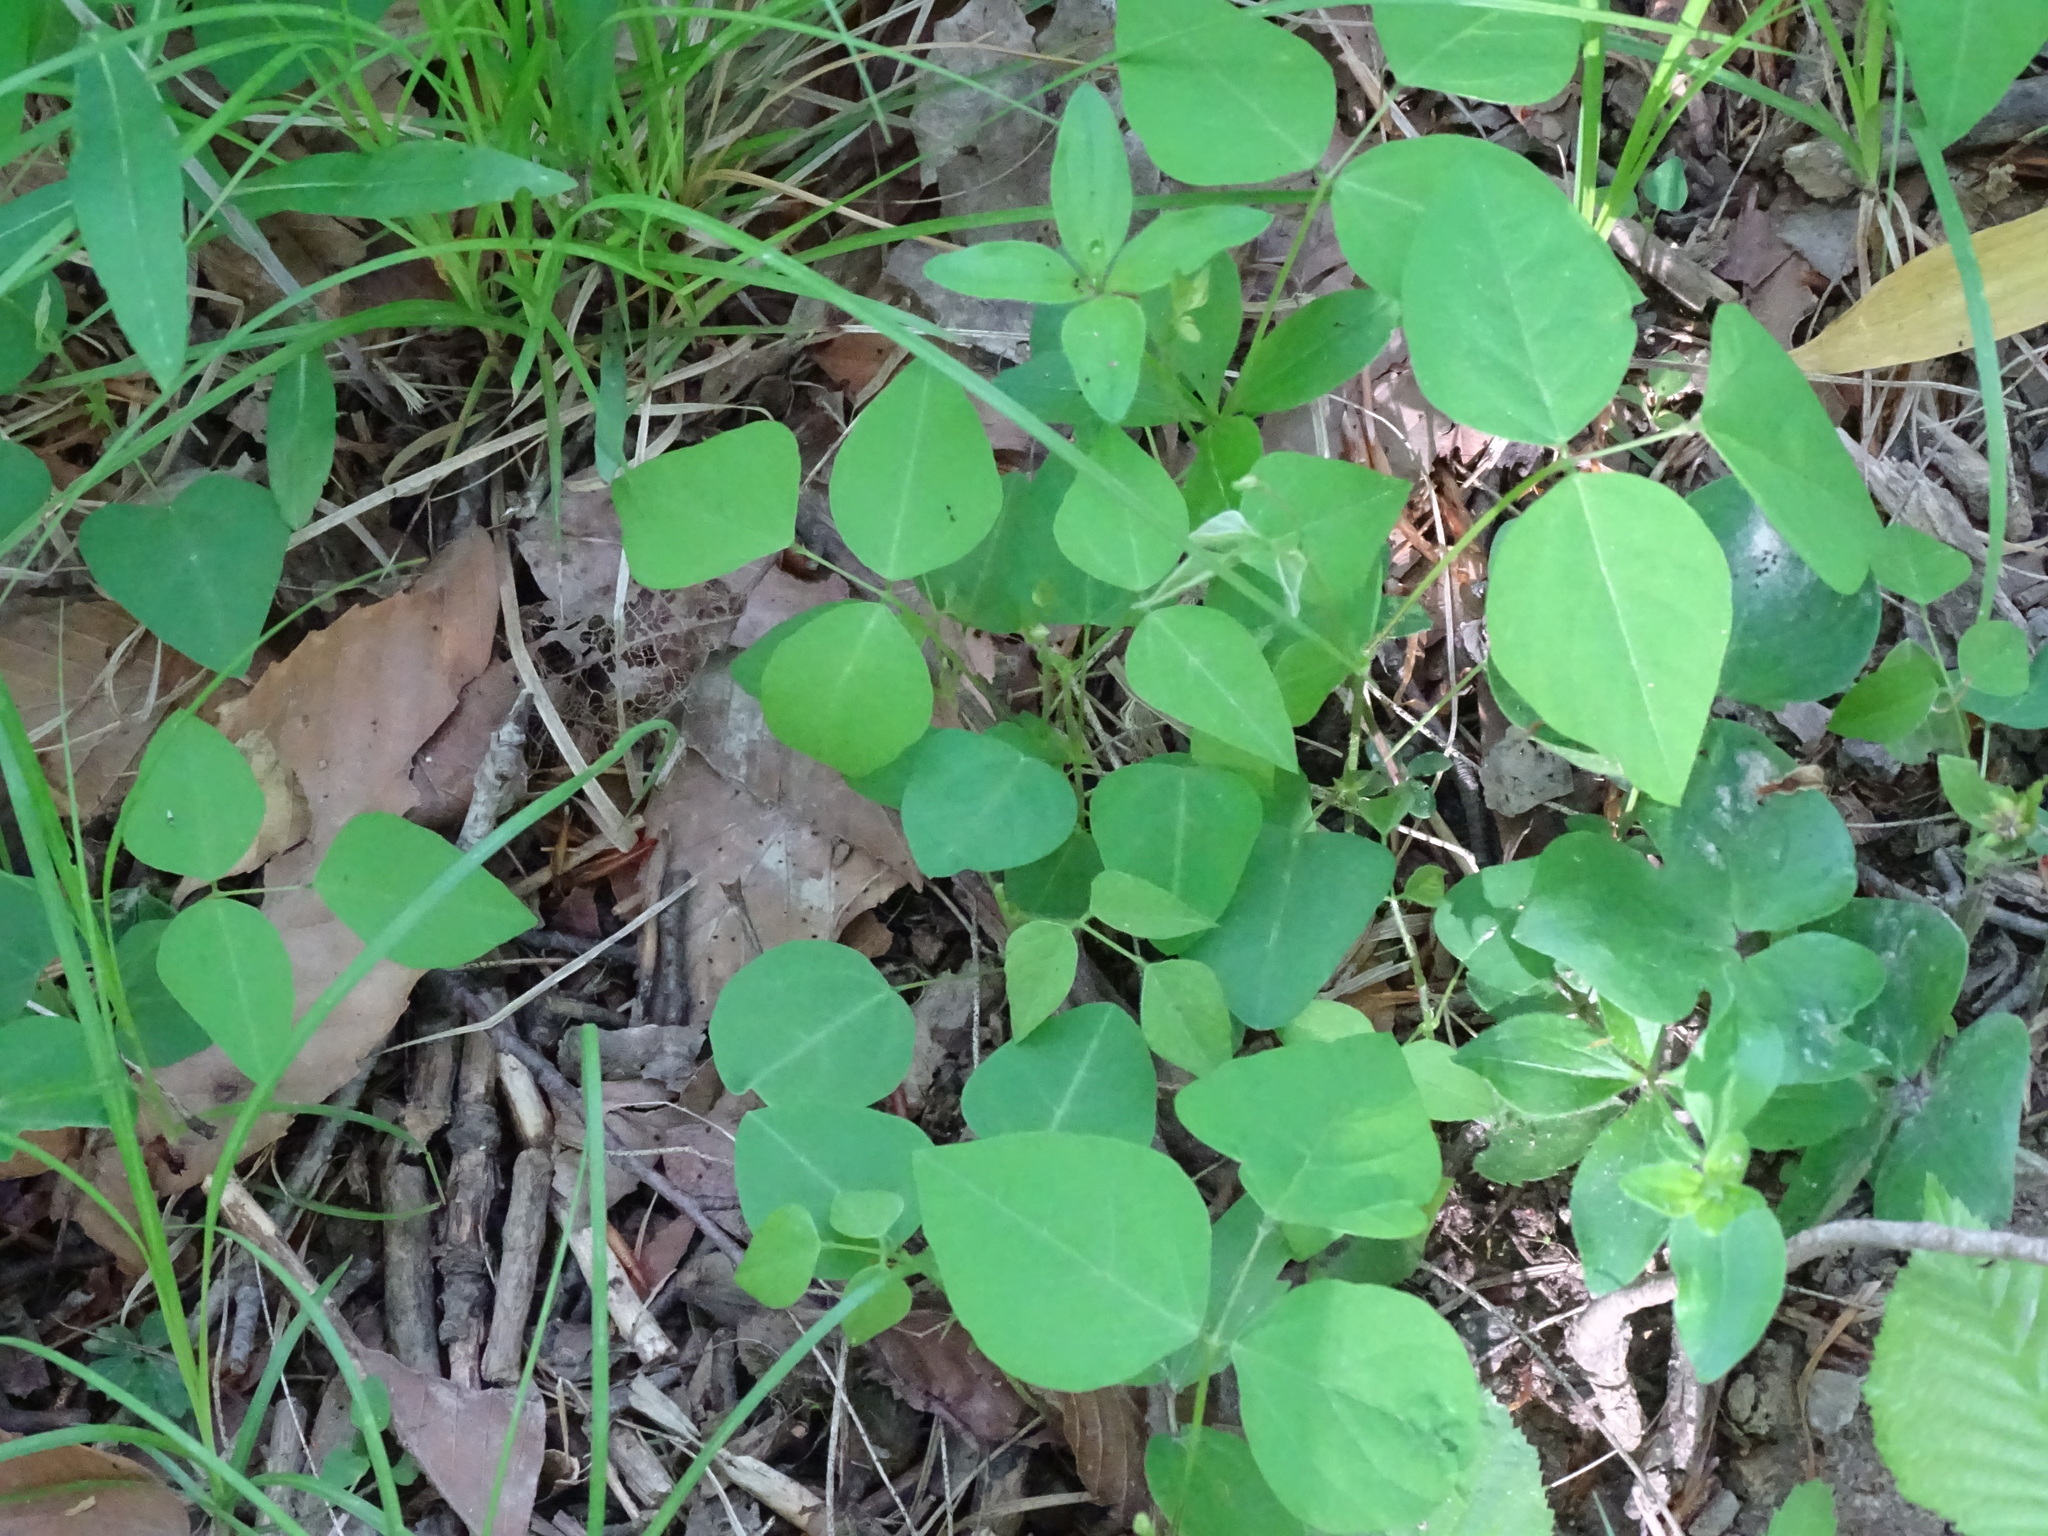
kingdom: Plantae
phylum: Tracheophyta
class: Magnoliopsida
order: Fabales
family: Fabaceae
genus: Amphicarpaea
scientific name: Amphicarpaea bracteata
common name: American hog peanut
